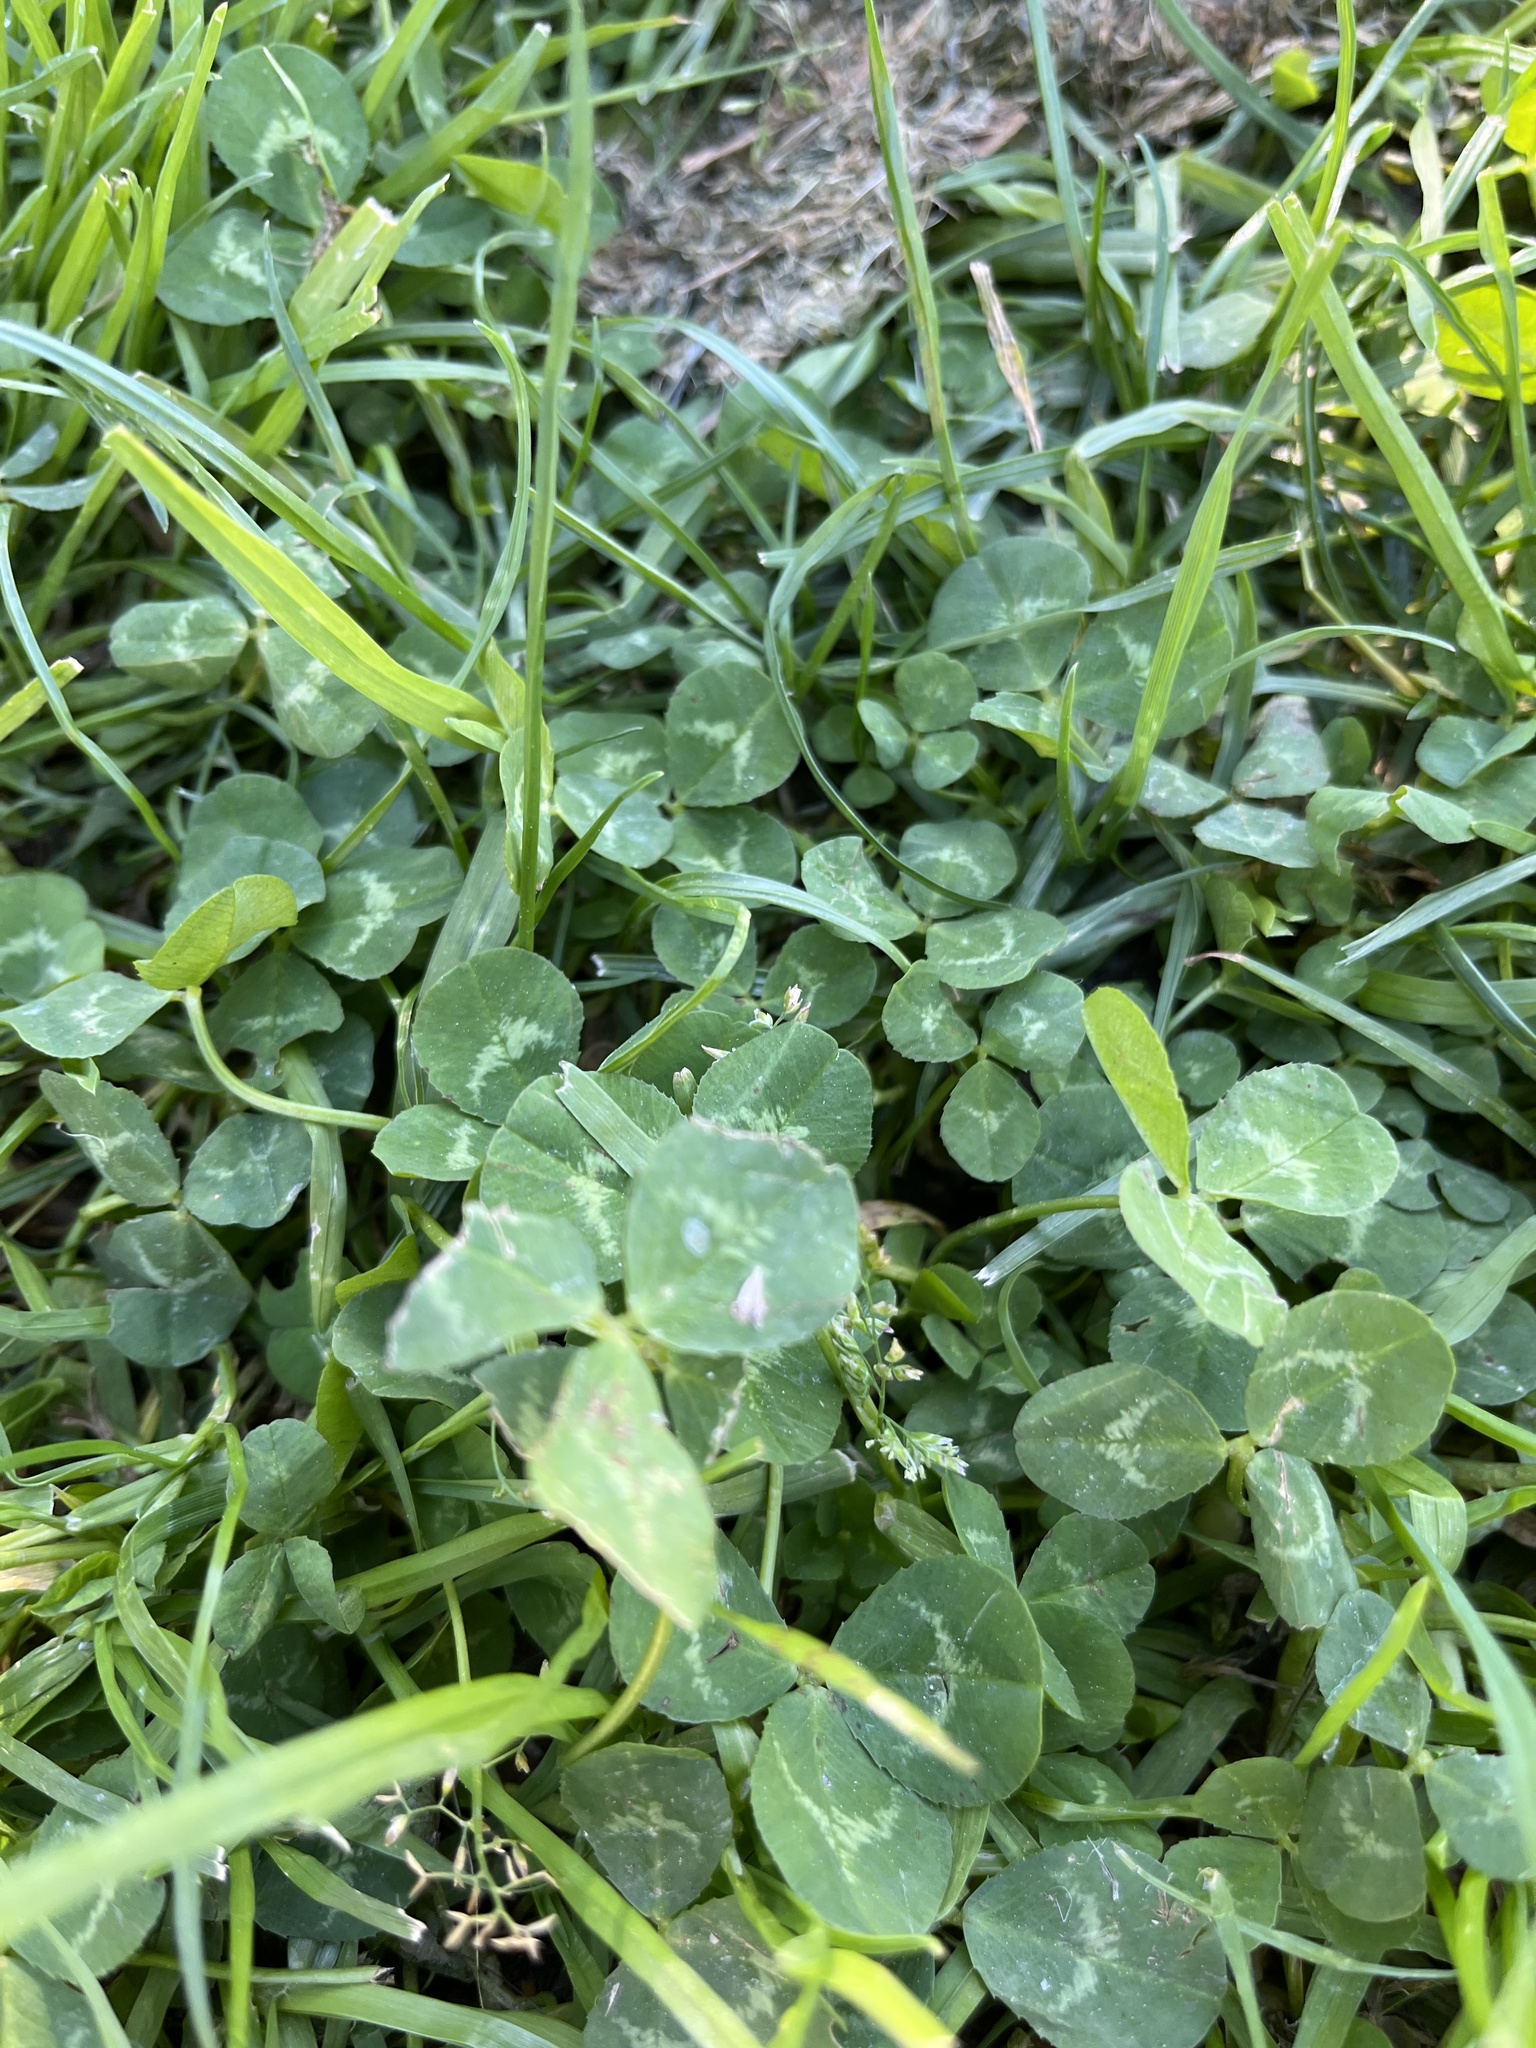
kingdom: Plantae
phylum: Tracheophyta
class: Magnoliopsida
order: Fabales
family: Fabaceae
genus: Trifolium
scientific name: Trifolium repens
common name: White clover
